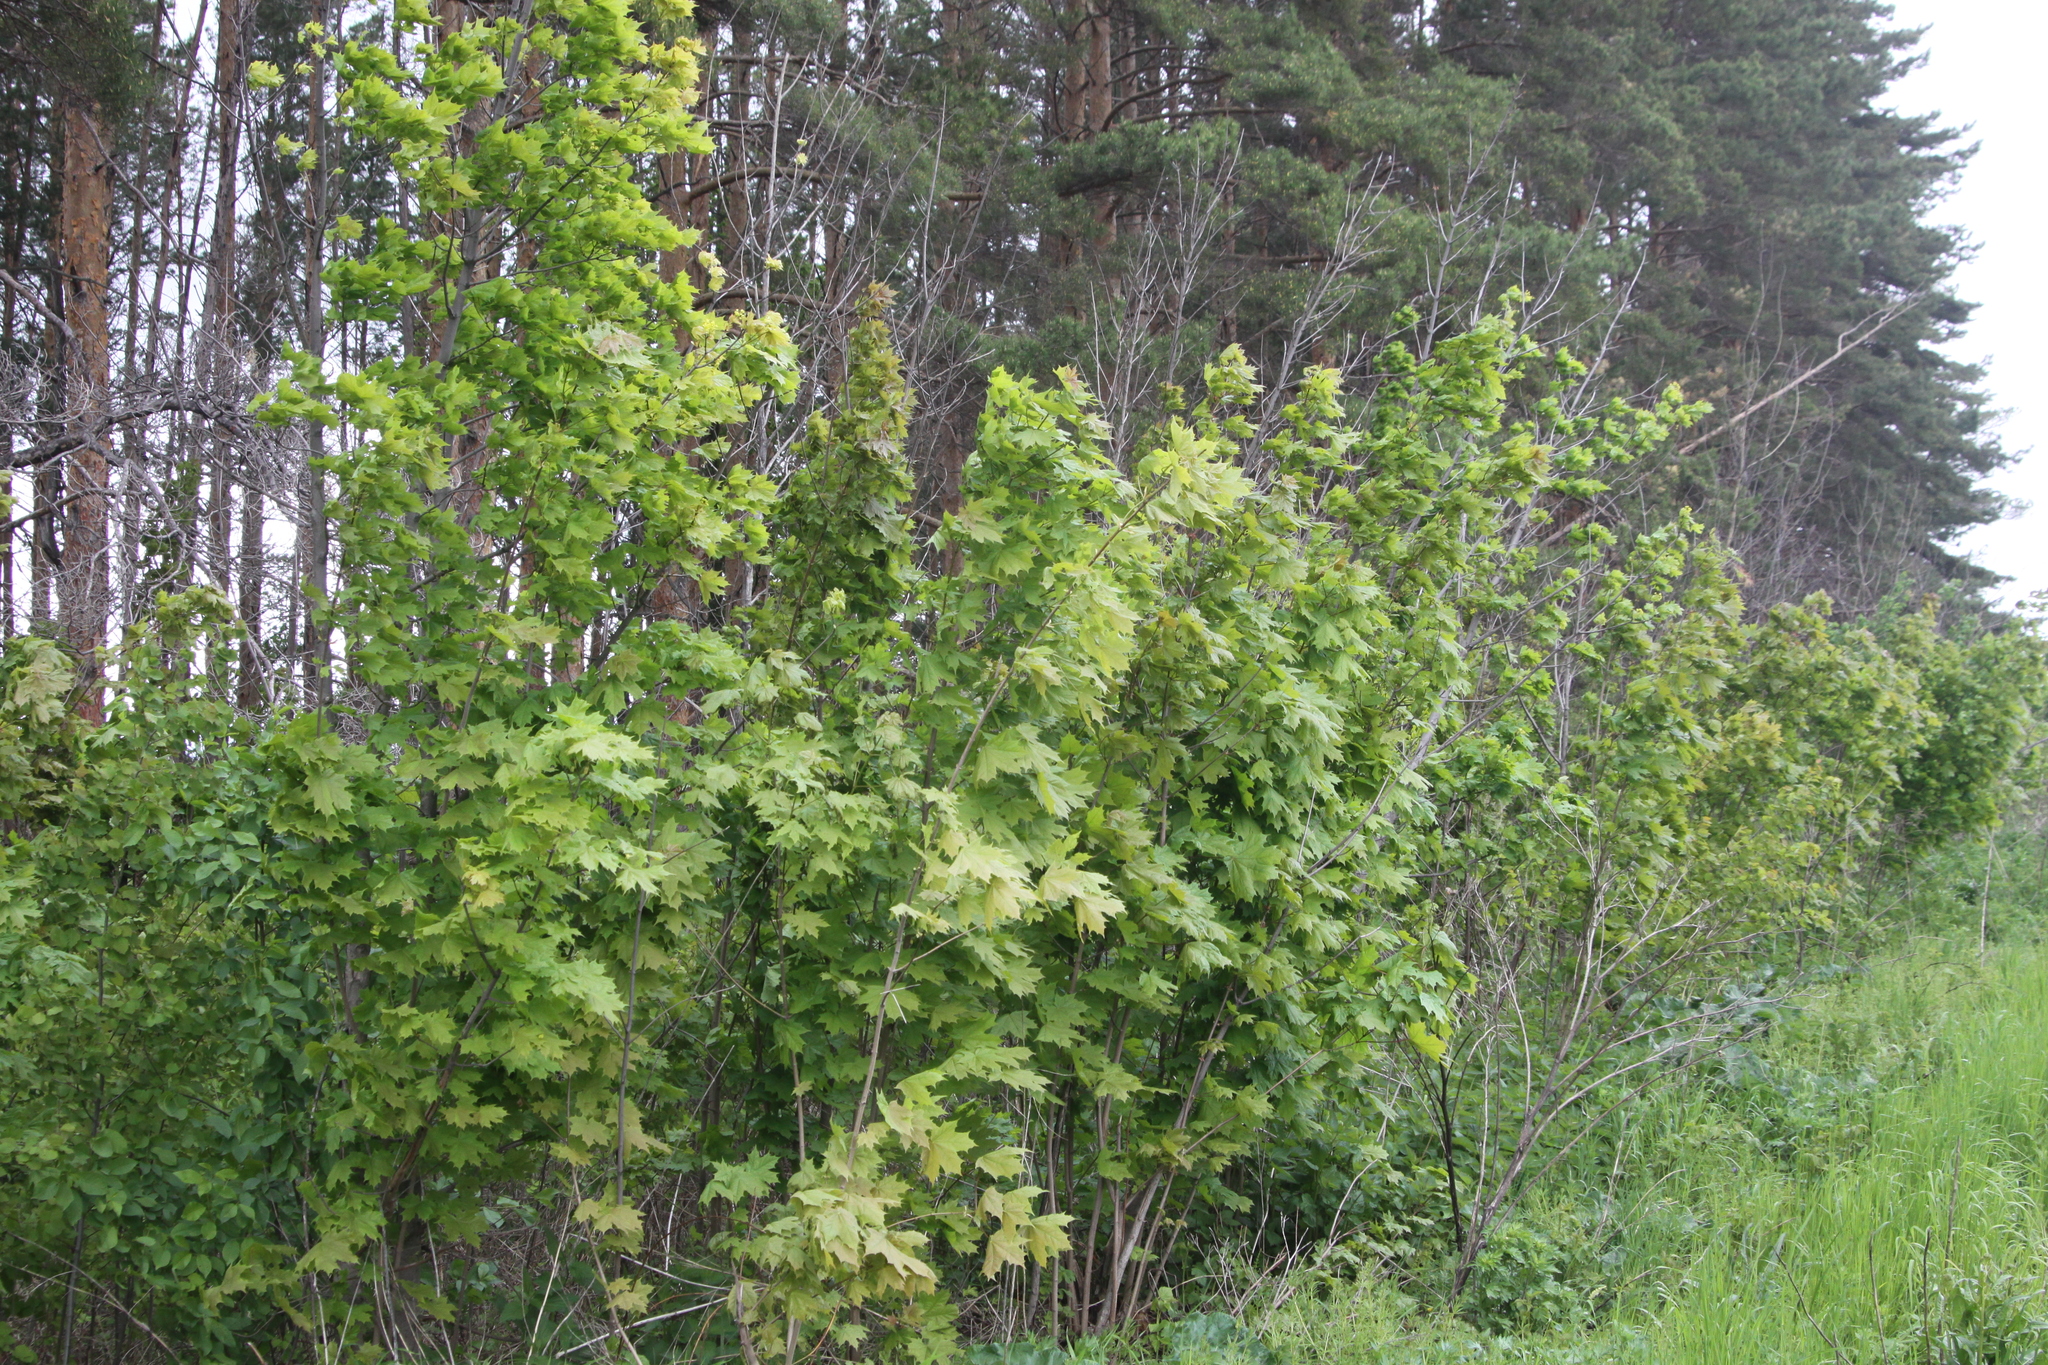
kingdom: Plantae
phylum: Tracheophyta
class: Magnoliopsida
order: Sapindales
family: Sapindaceae
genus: Acer
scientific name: Acer platanoides
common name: Norway maple
